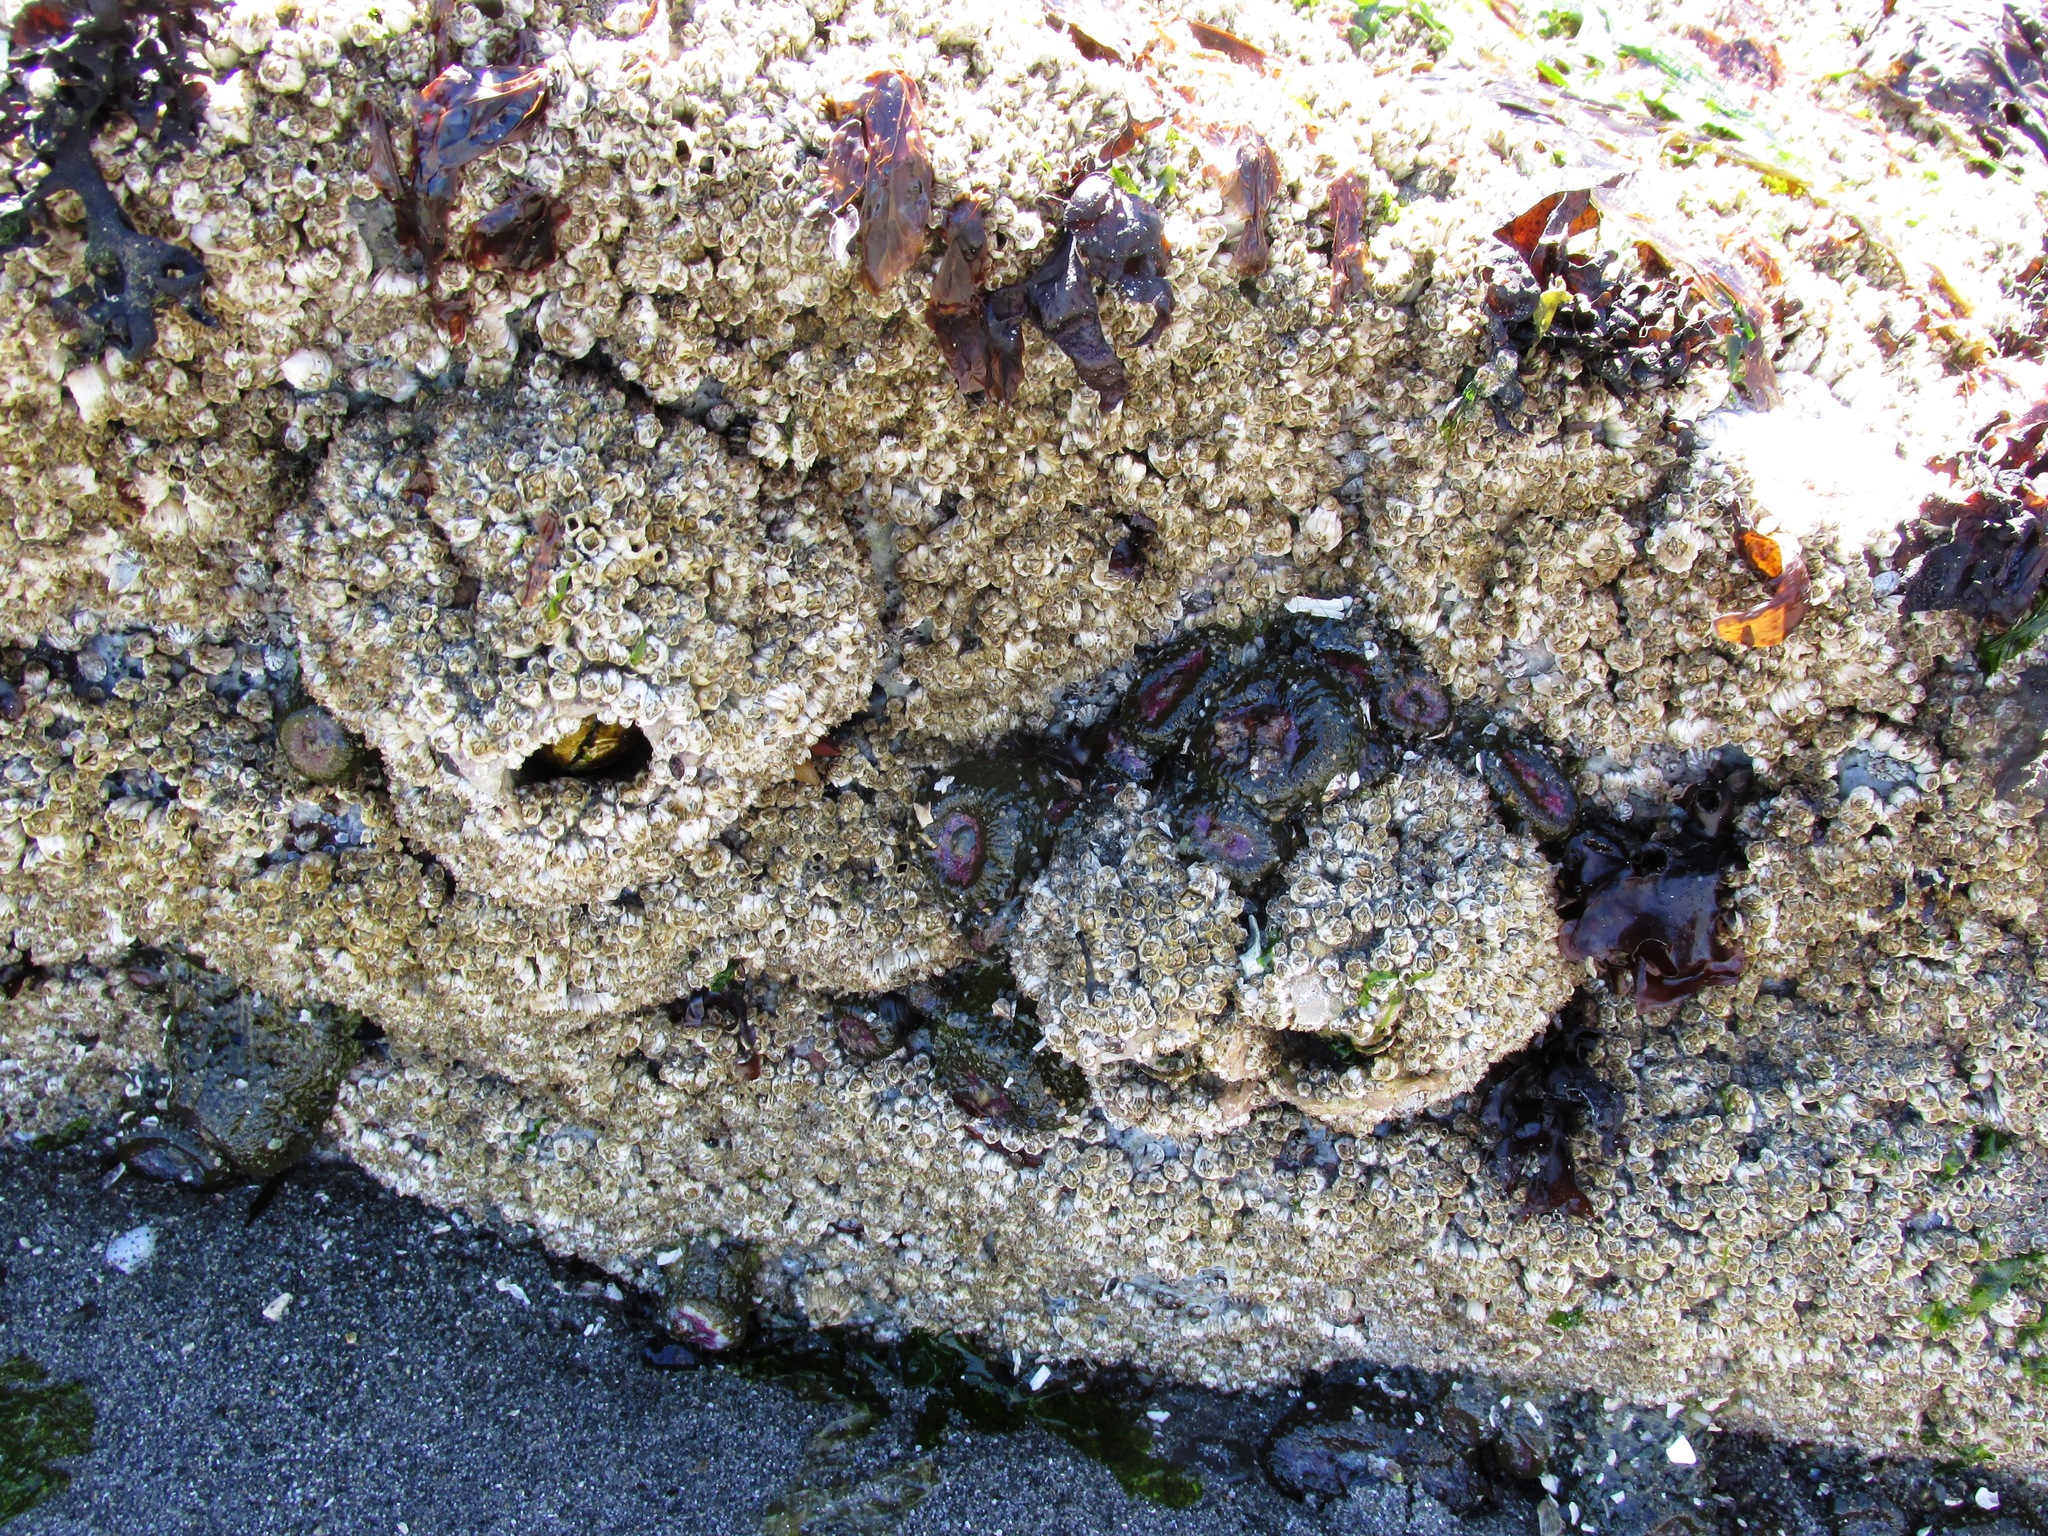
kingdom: Animalia
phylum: Arthropoda
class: Maxillopoda
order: Sessilia
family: Balanidae
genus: Balanus
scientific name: Balanus glandula
